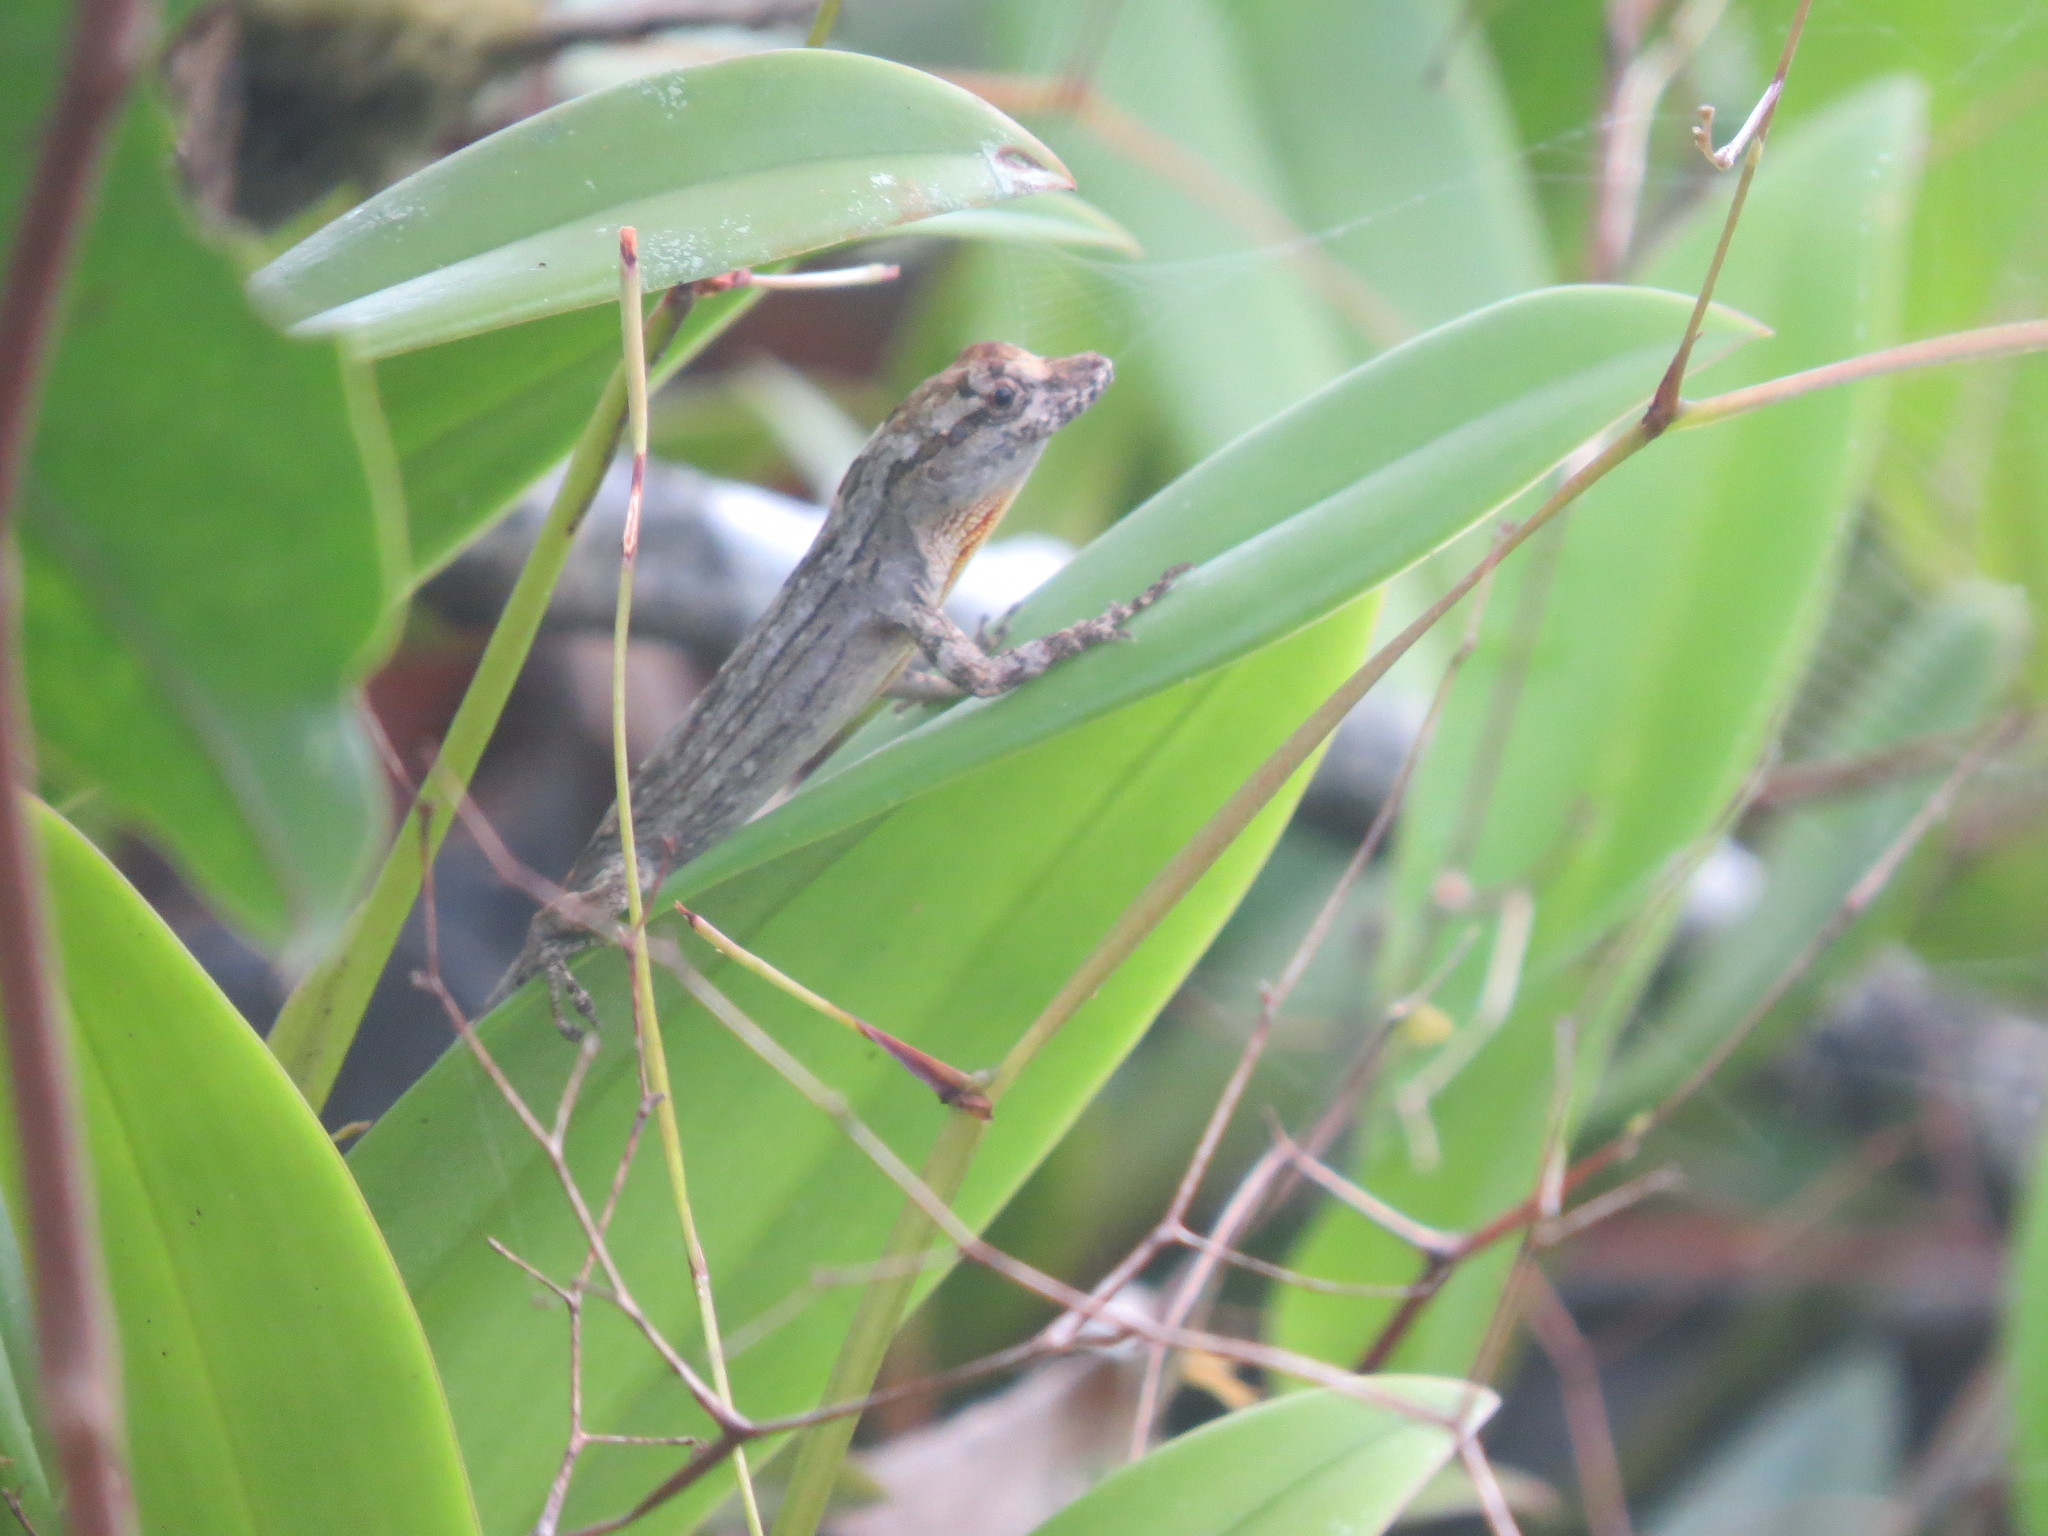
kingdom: Animalia
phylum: Chordata
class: Squamata
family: Dactyloidae
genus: Anolis
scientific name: Anolis ortonii
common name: Bark anole
